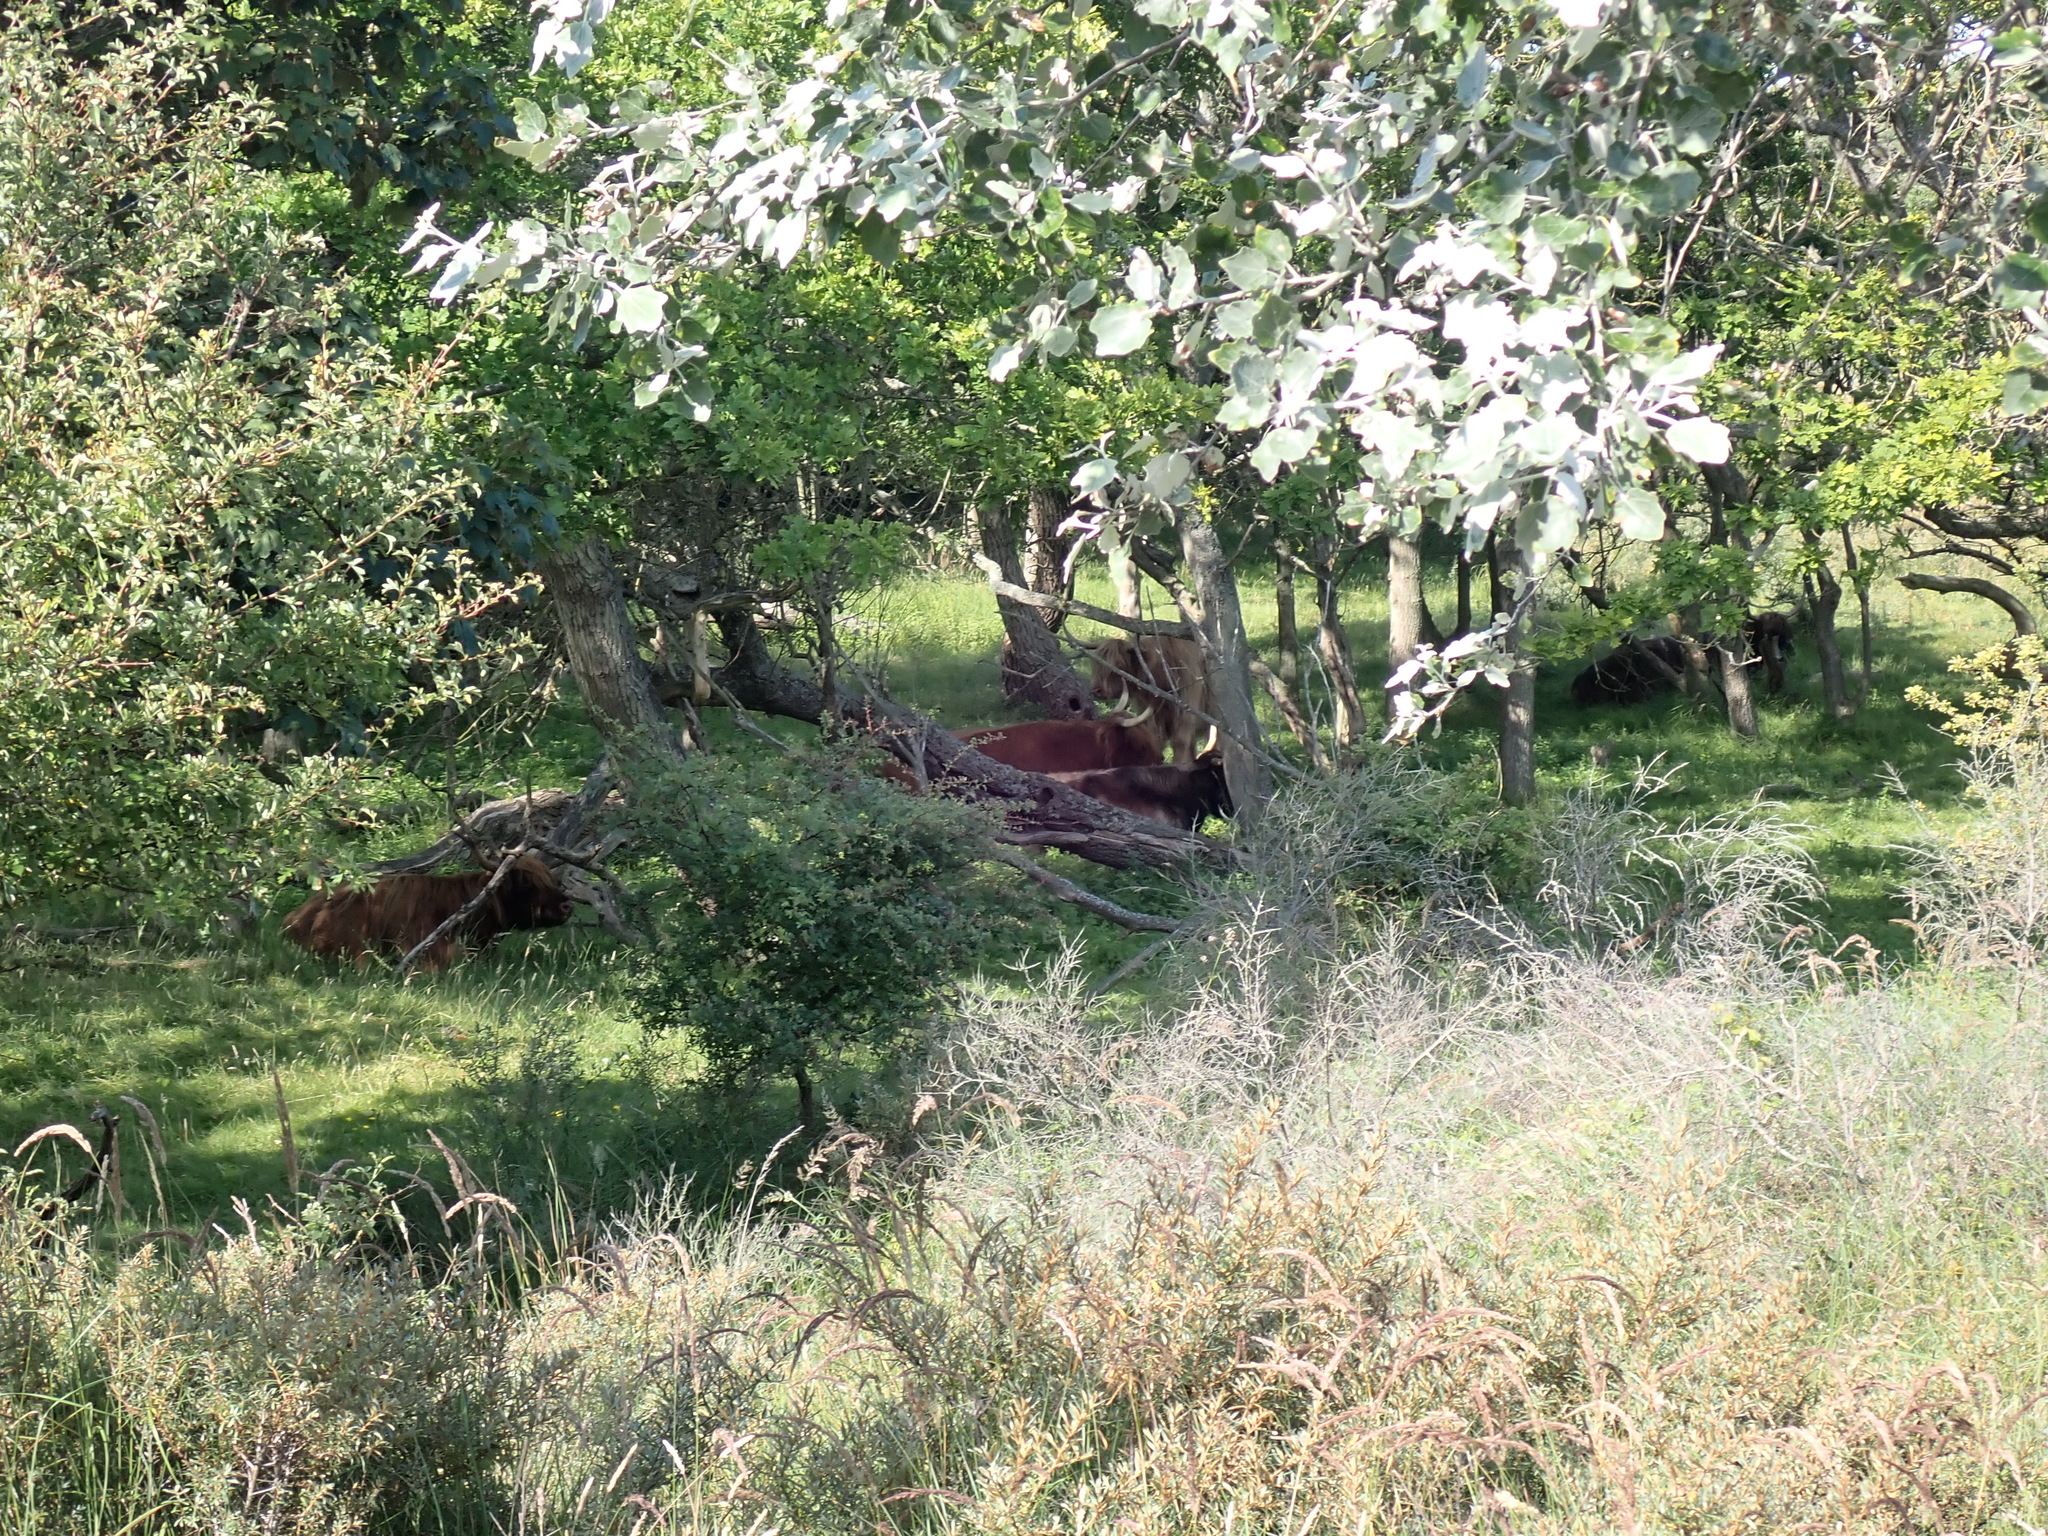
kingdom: Animalia
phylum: Chordata
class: Mammalia
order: Artiodactyla
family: Bovidae
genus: Bos
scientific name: Bos taurus
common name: Domesticated cattle
